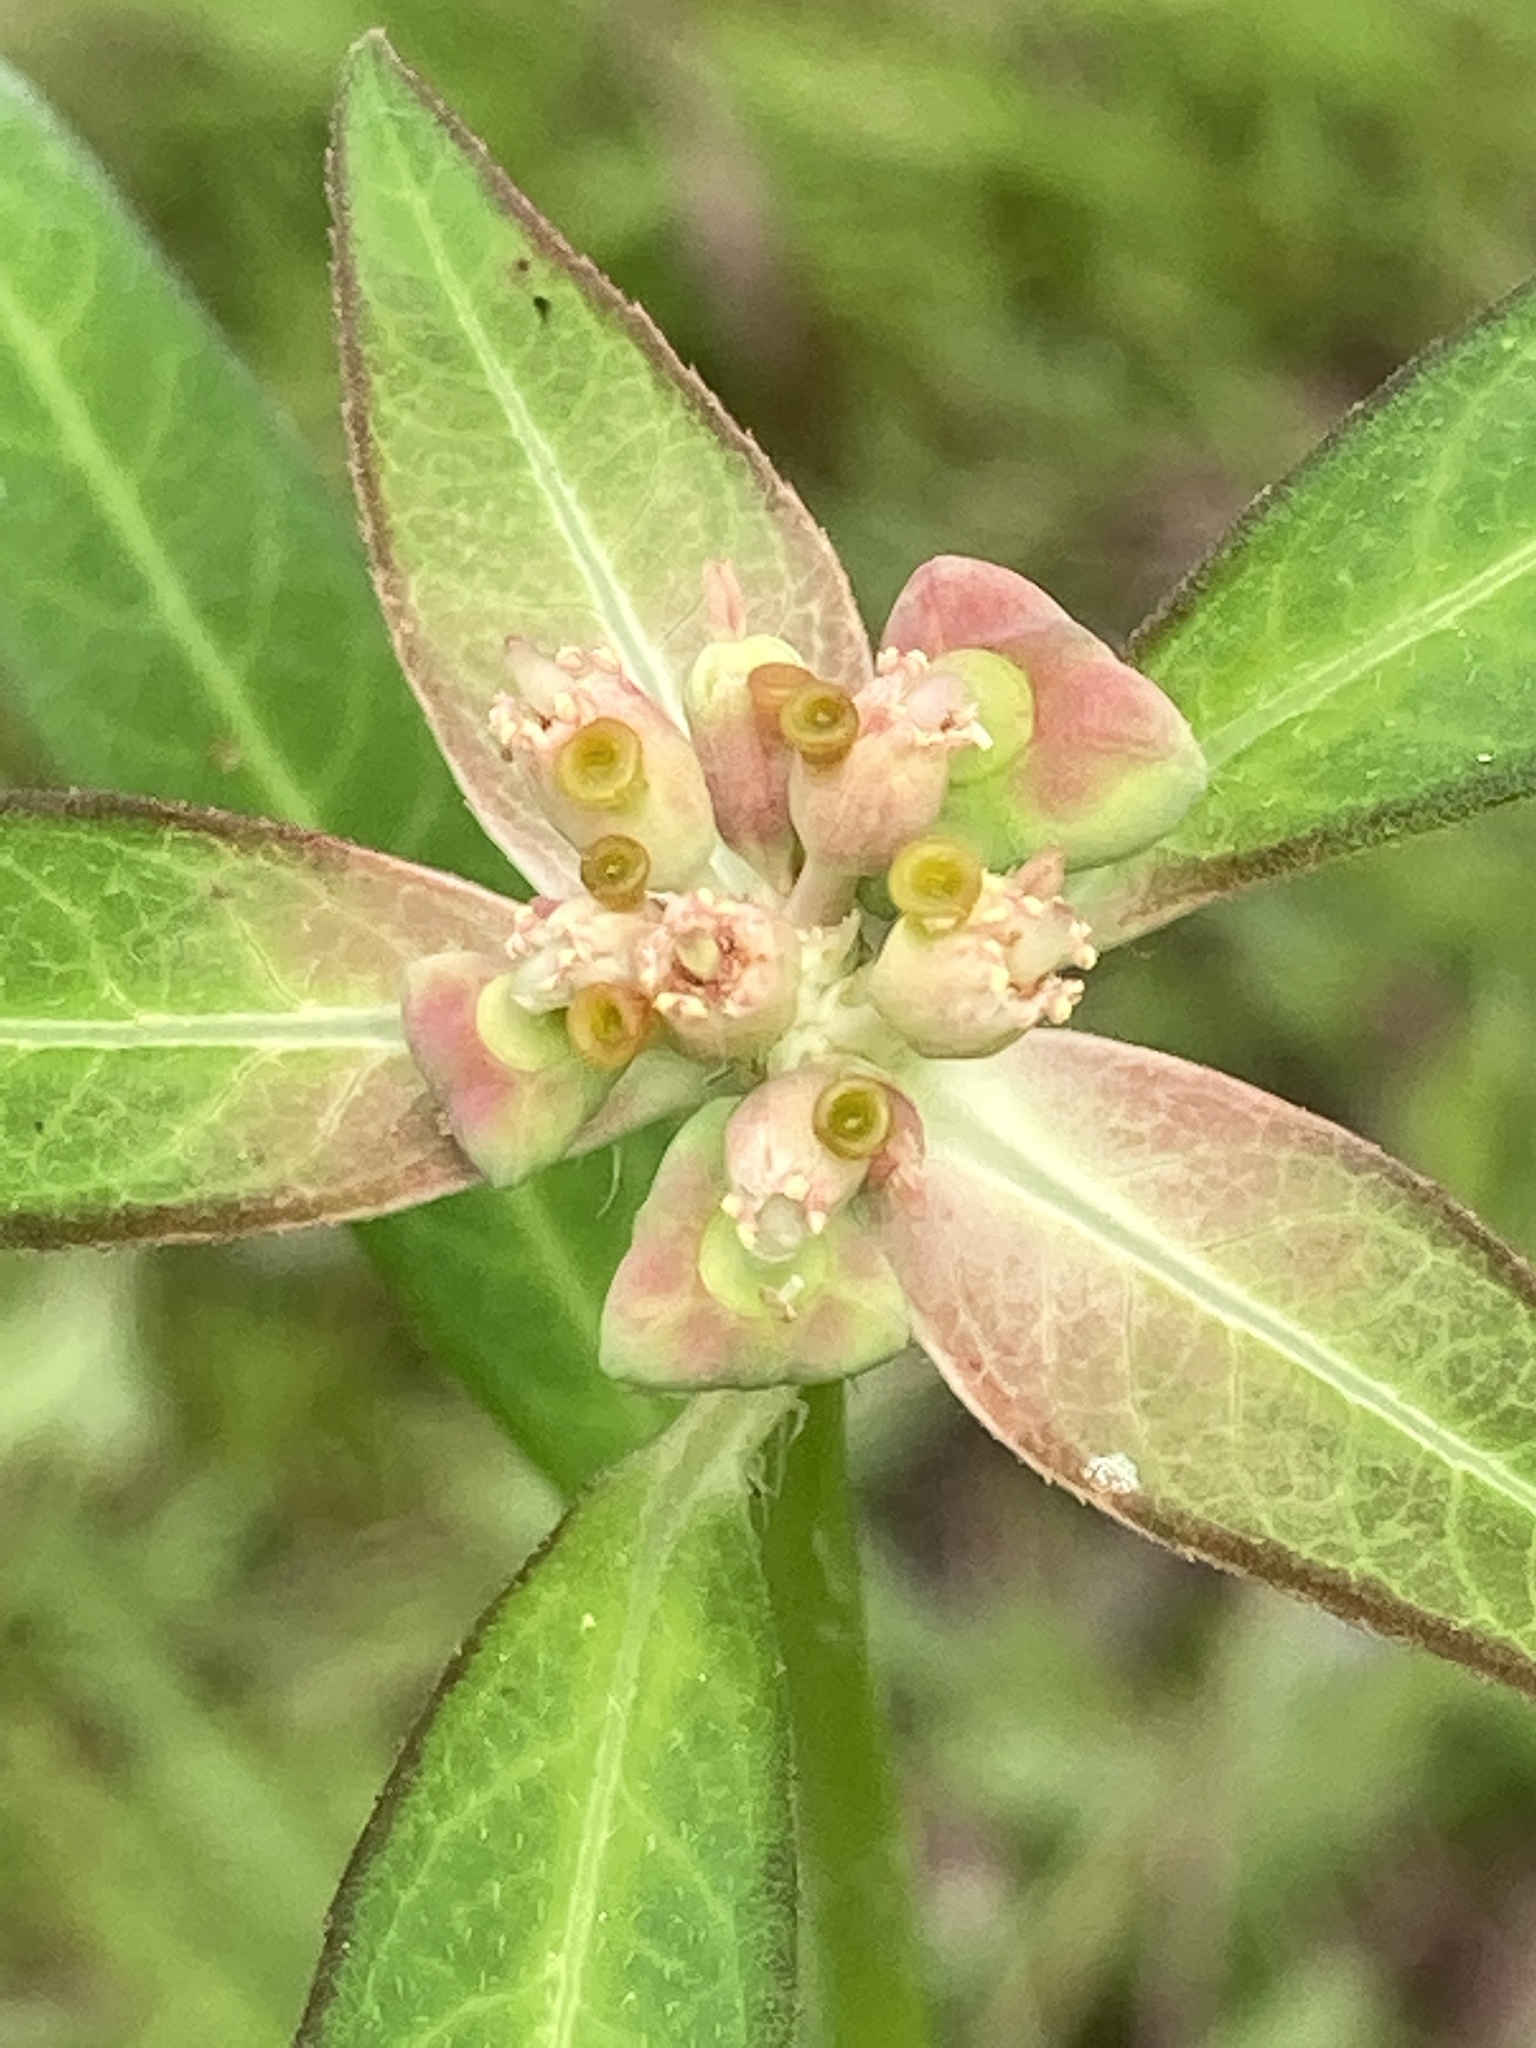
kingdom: Plantae
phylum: Tracheophyta
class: Magnoliopsida
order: Malpighiales
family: Euphorbiaceae
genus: Euphorbia
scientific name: Euphorbia heterophylla
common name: Mexican fireplant
